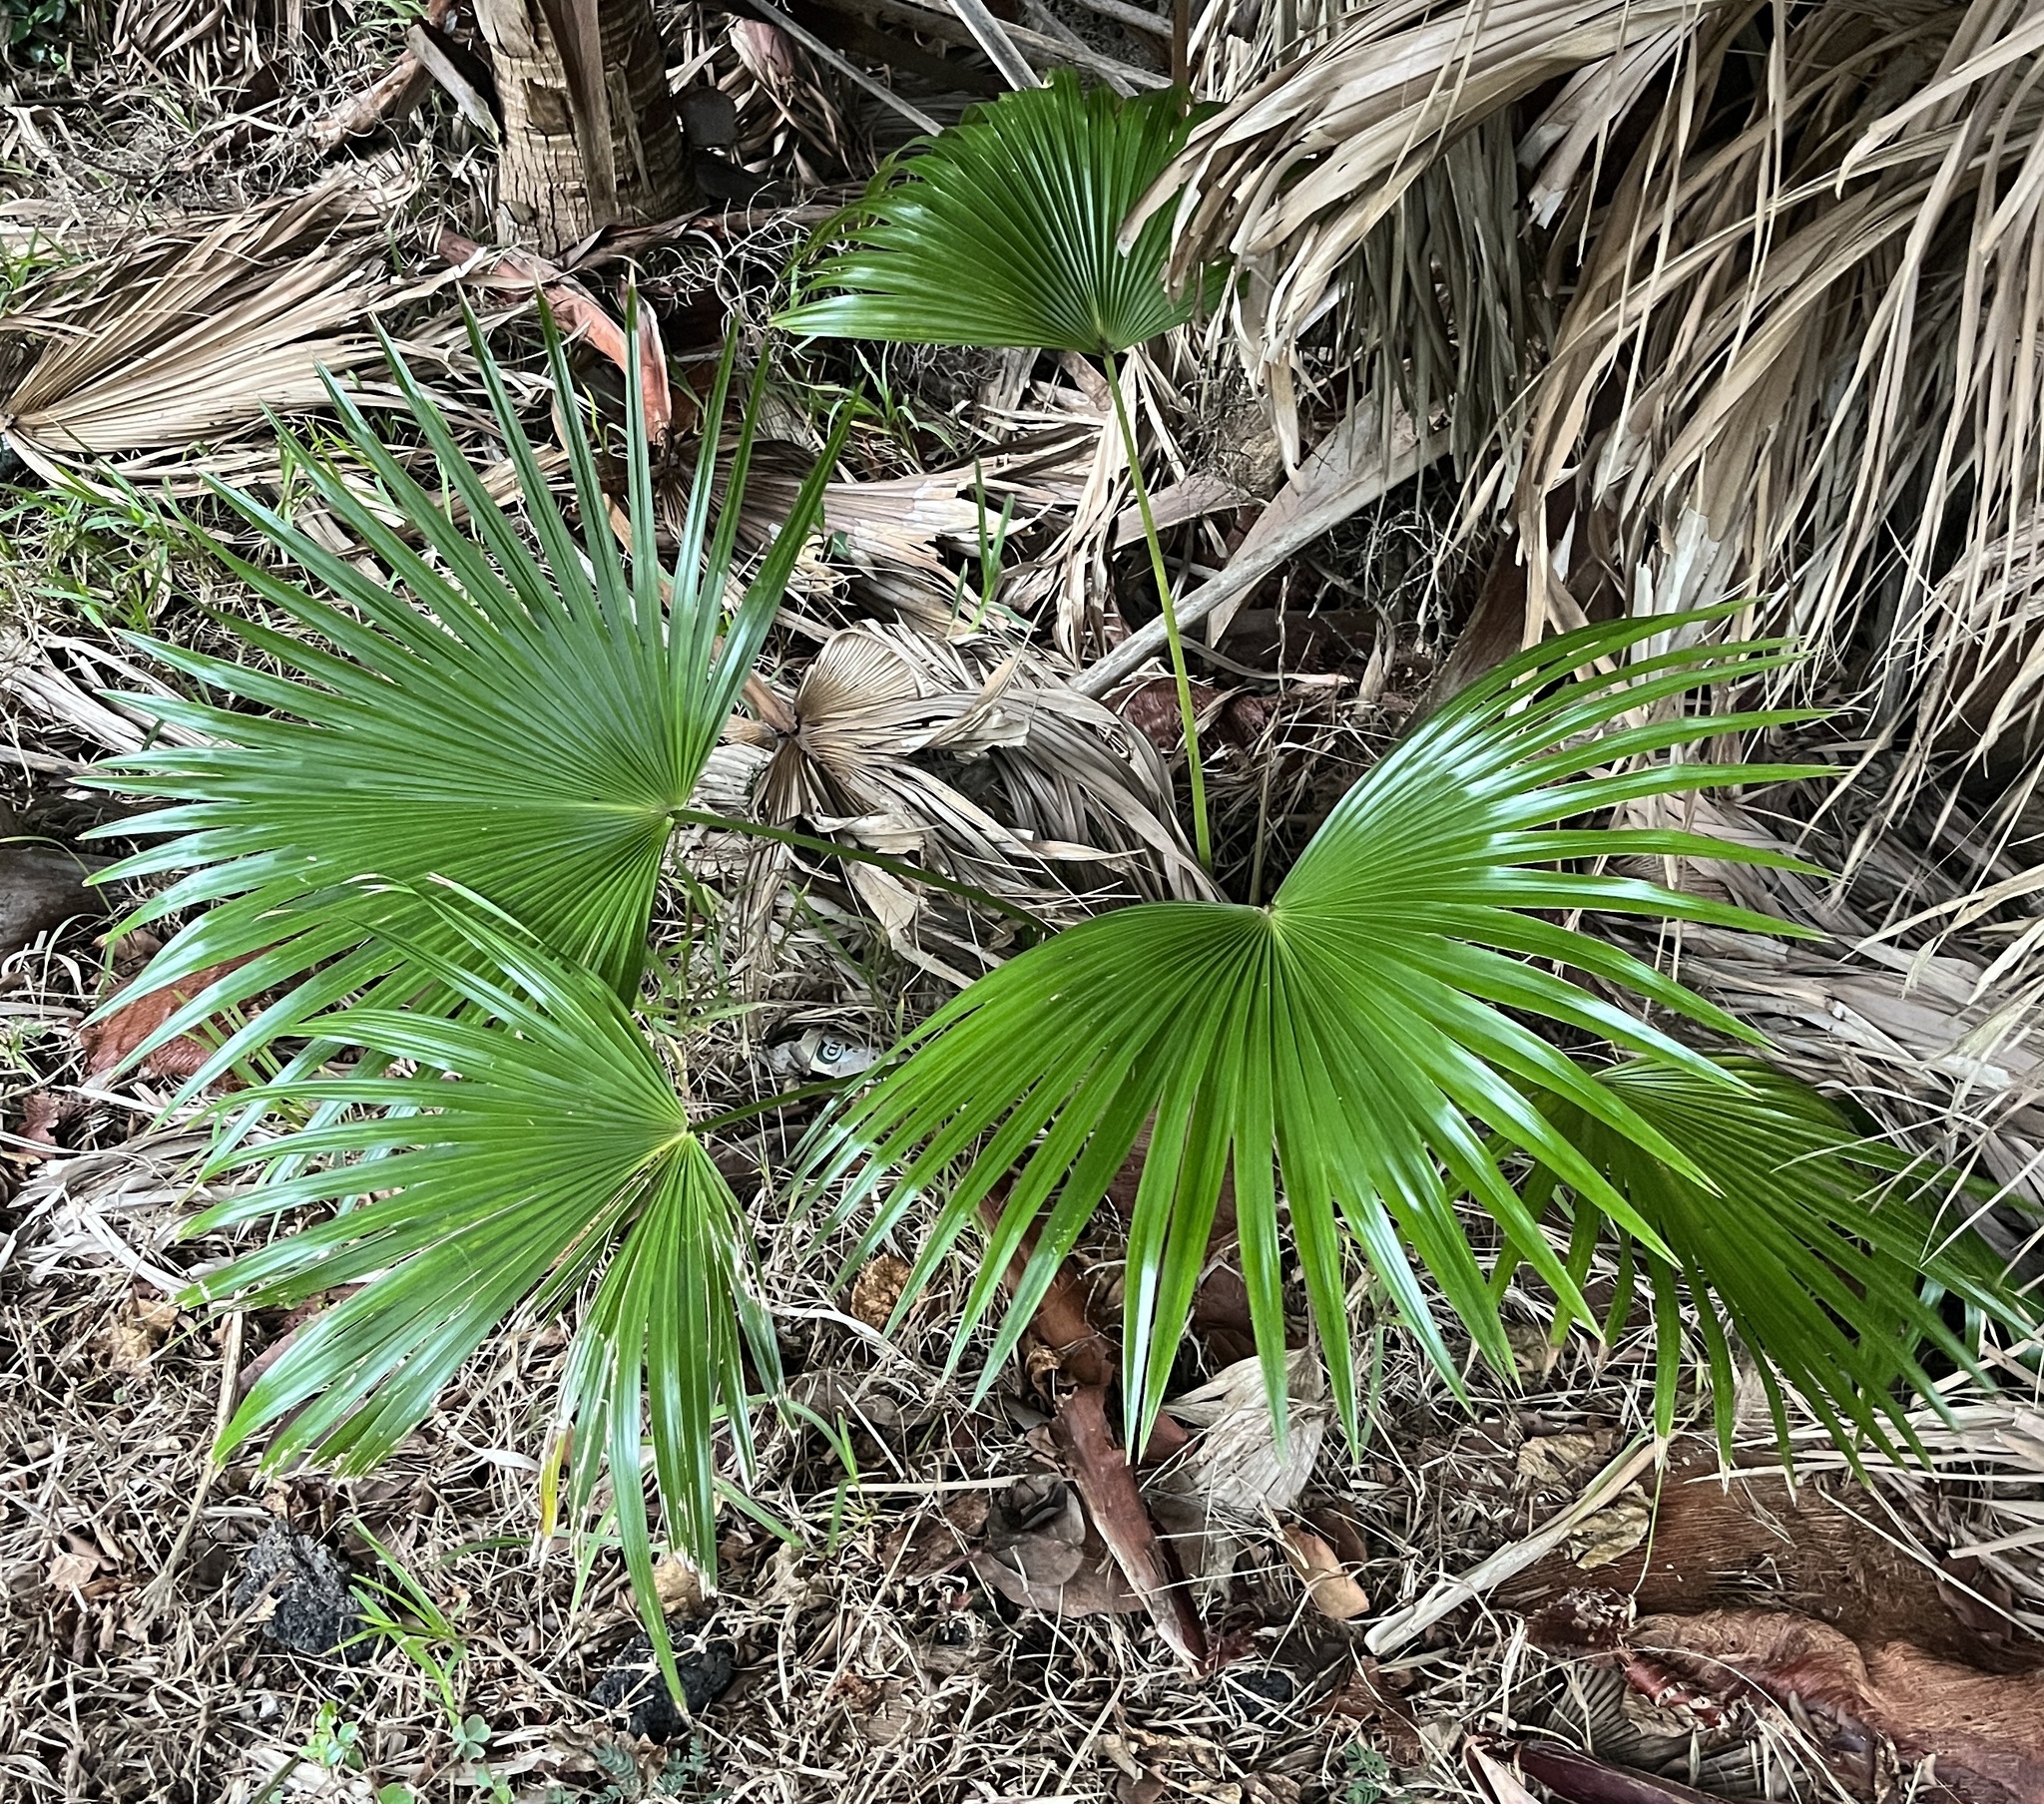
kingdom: Plantae
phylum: Tracheophyta
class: Liliopsida
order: Arecales
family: Arecaceae
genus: Livistona
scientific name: Livistona chinensis
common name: Fountain palm
